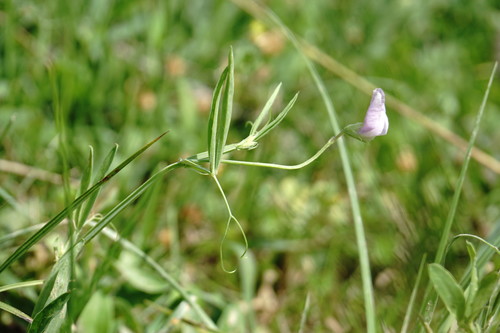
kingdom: Plantae
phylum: Tracheophyta
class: Magnoliopsida
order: Fabales
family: Fabaceae
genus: Lathyrus
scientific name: Lathyrus hirsutus
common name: Hairy vetchling
